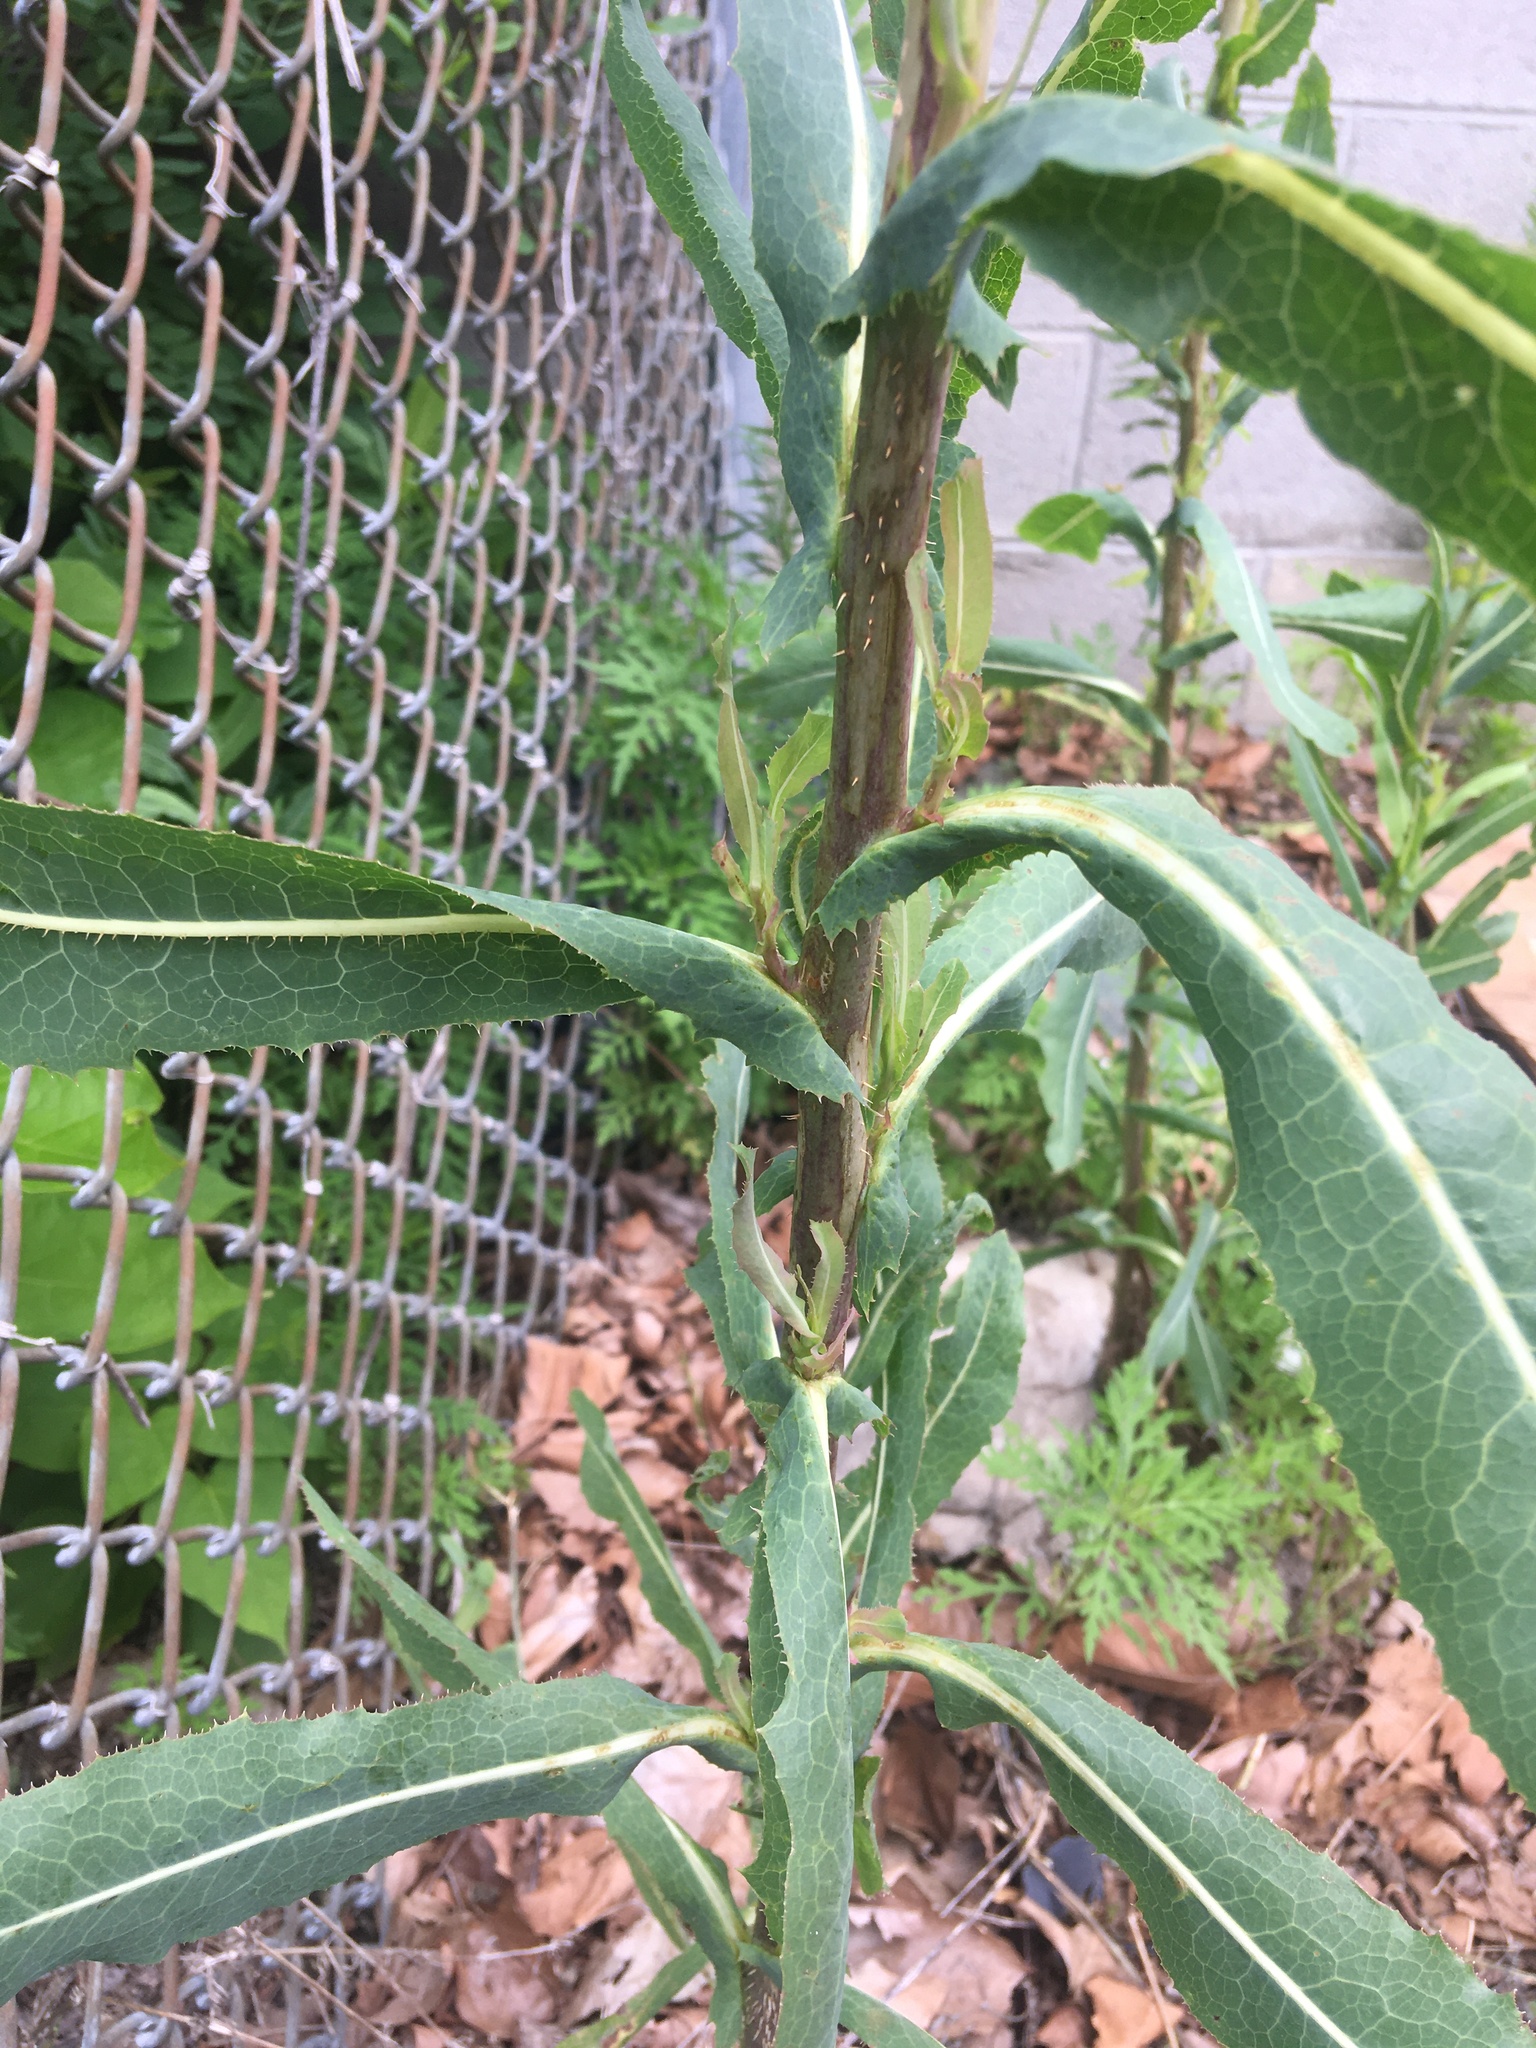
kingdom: Plantae
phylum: Tracheophyta
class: Magnoliopsida
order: Asterales
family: Asteraceae
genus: Lactuca
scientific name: Lactuca serriola
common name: Prickly lettuce
